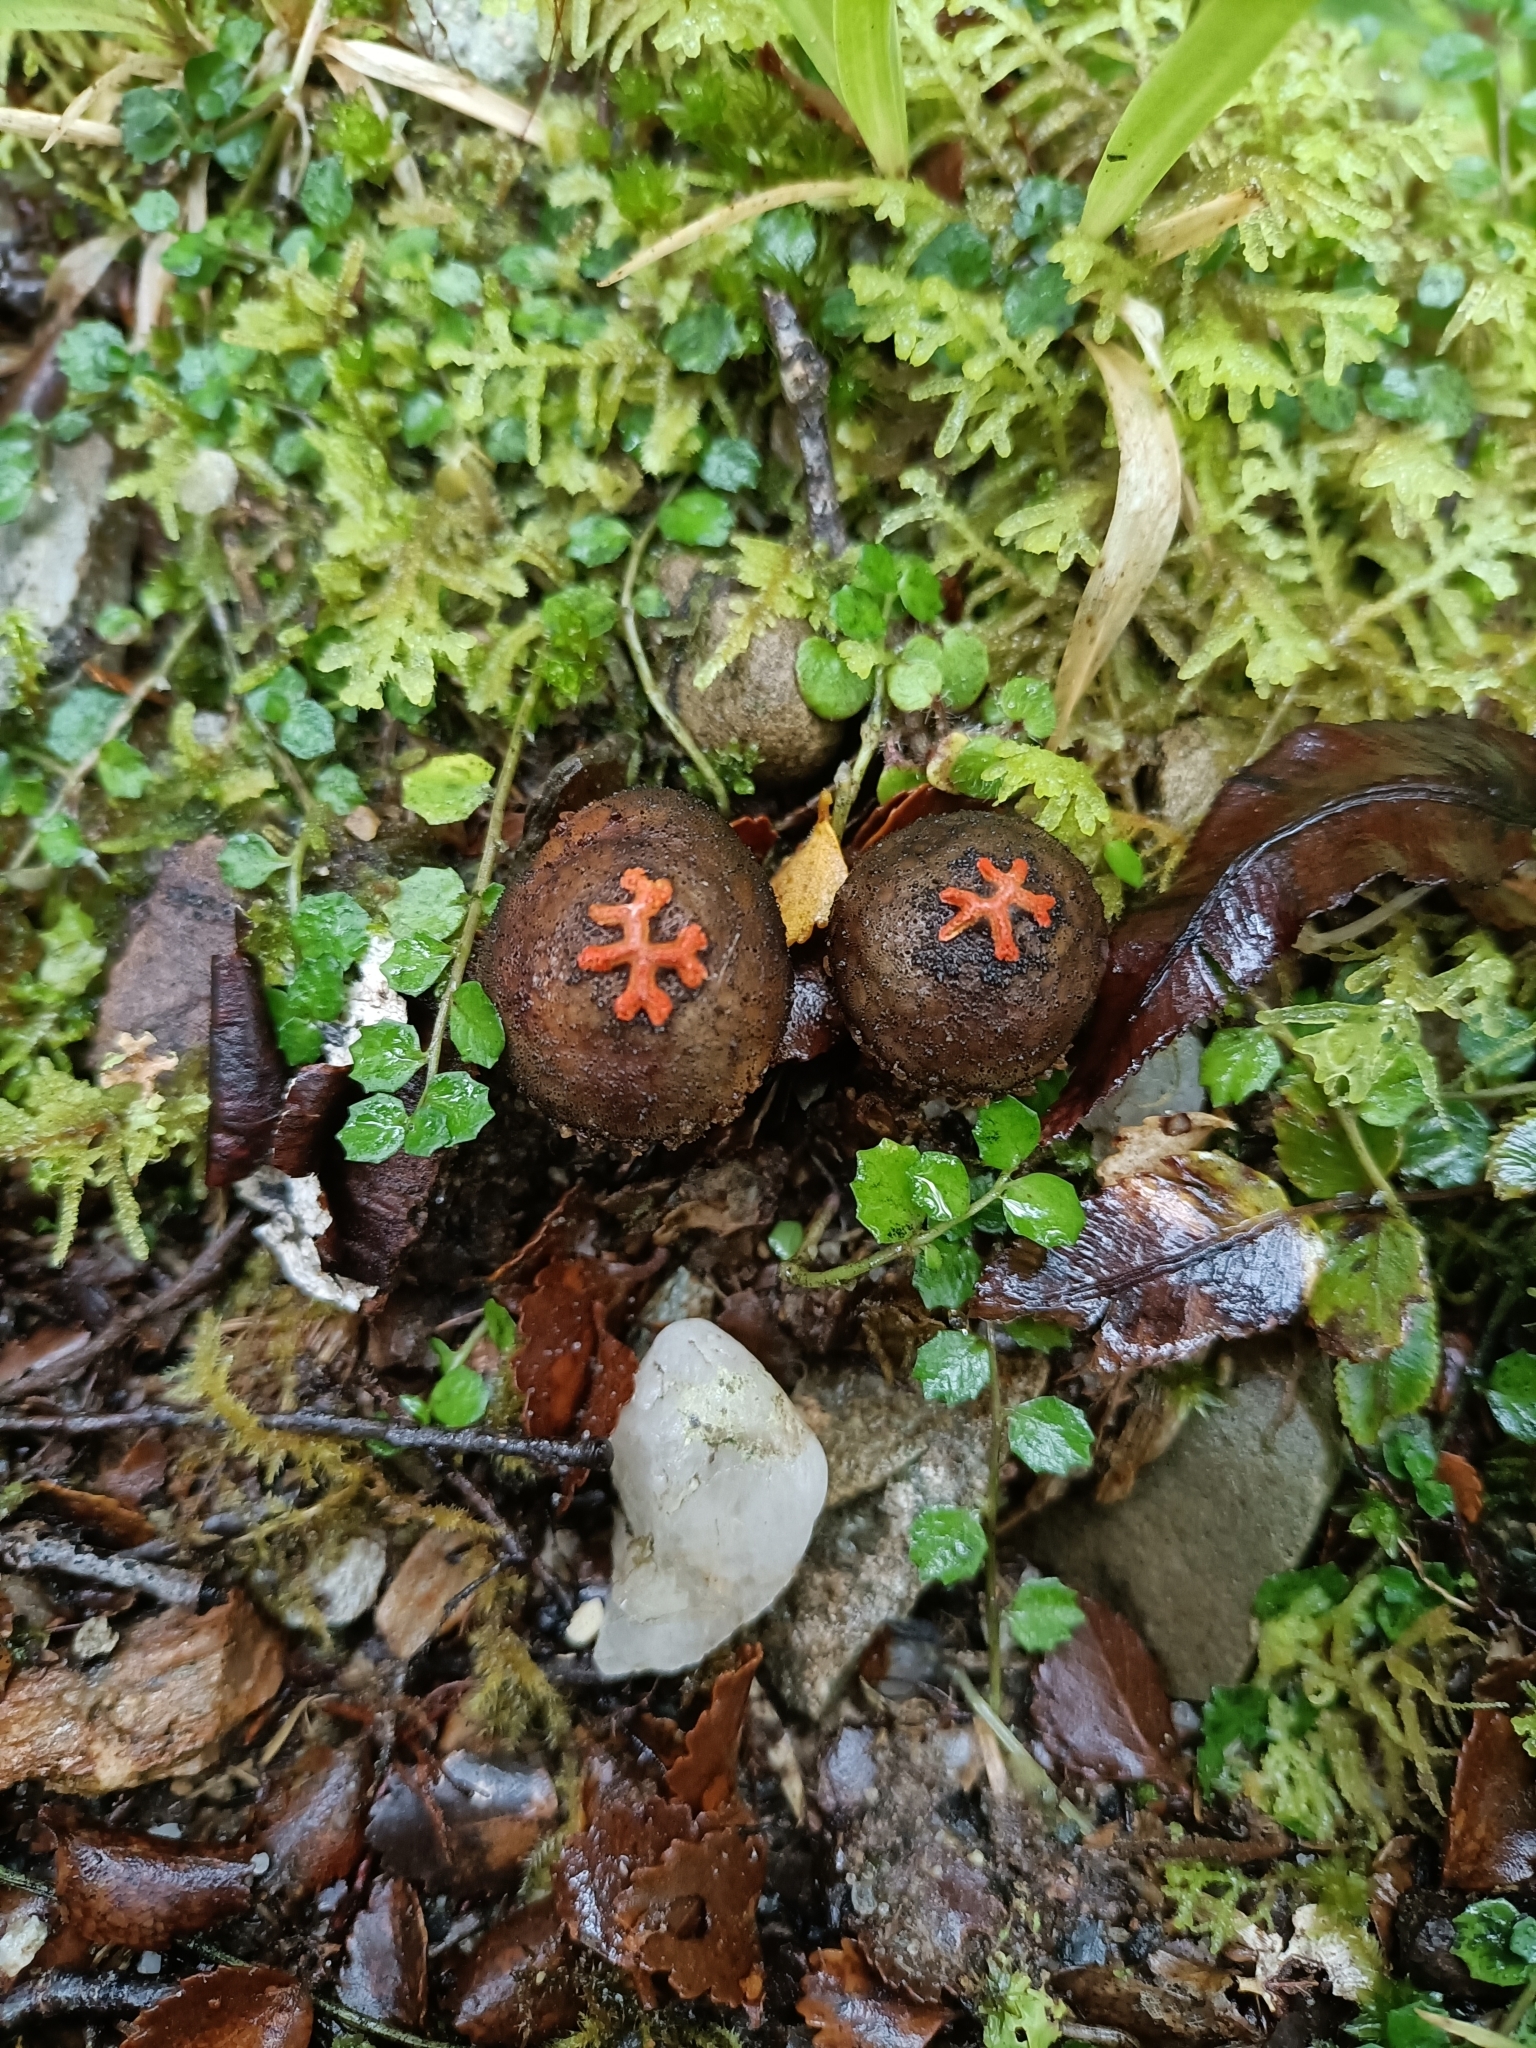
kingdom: Fungi
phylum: Basidiomycota
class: Agaricomycetes
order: Boletales
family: Calostomataceae
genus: Calostoma
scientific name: Calostoma rodwayi
